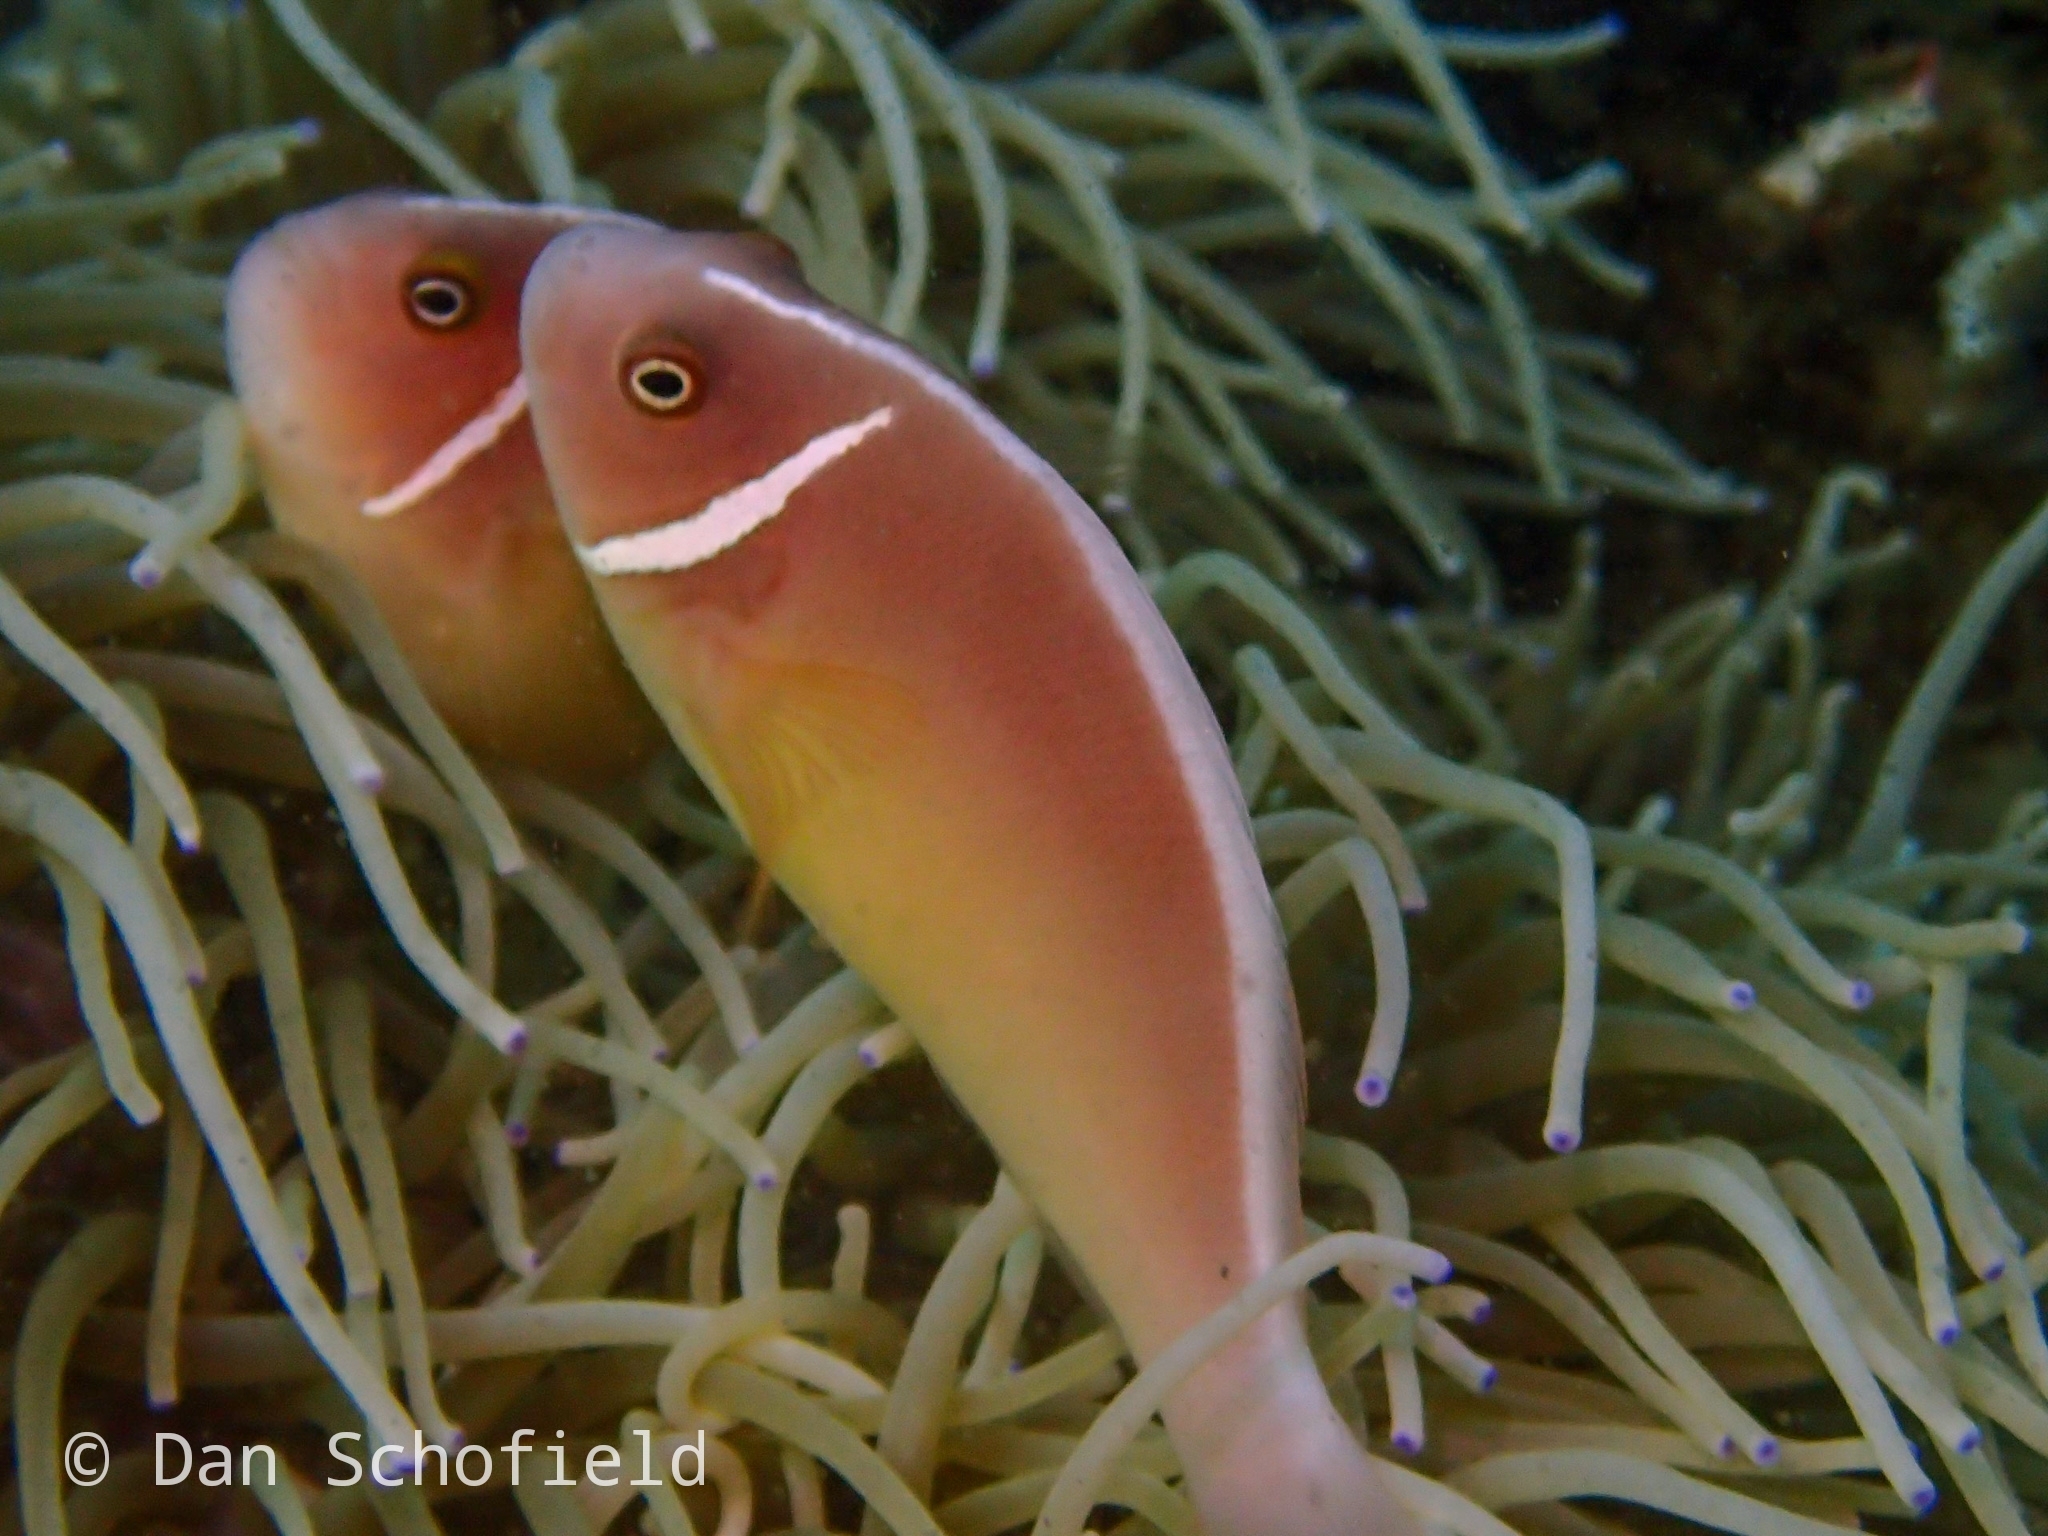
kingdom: Animalia
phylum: Chordata
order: Perciformes
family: Pomacentridae
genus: Amphiprion
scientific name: Amphiprion perideraion
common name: Pink anemonefish
